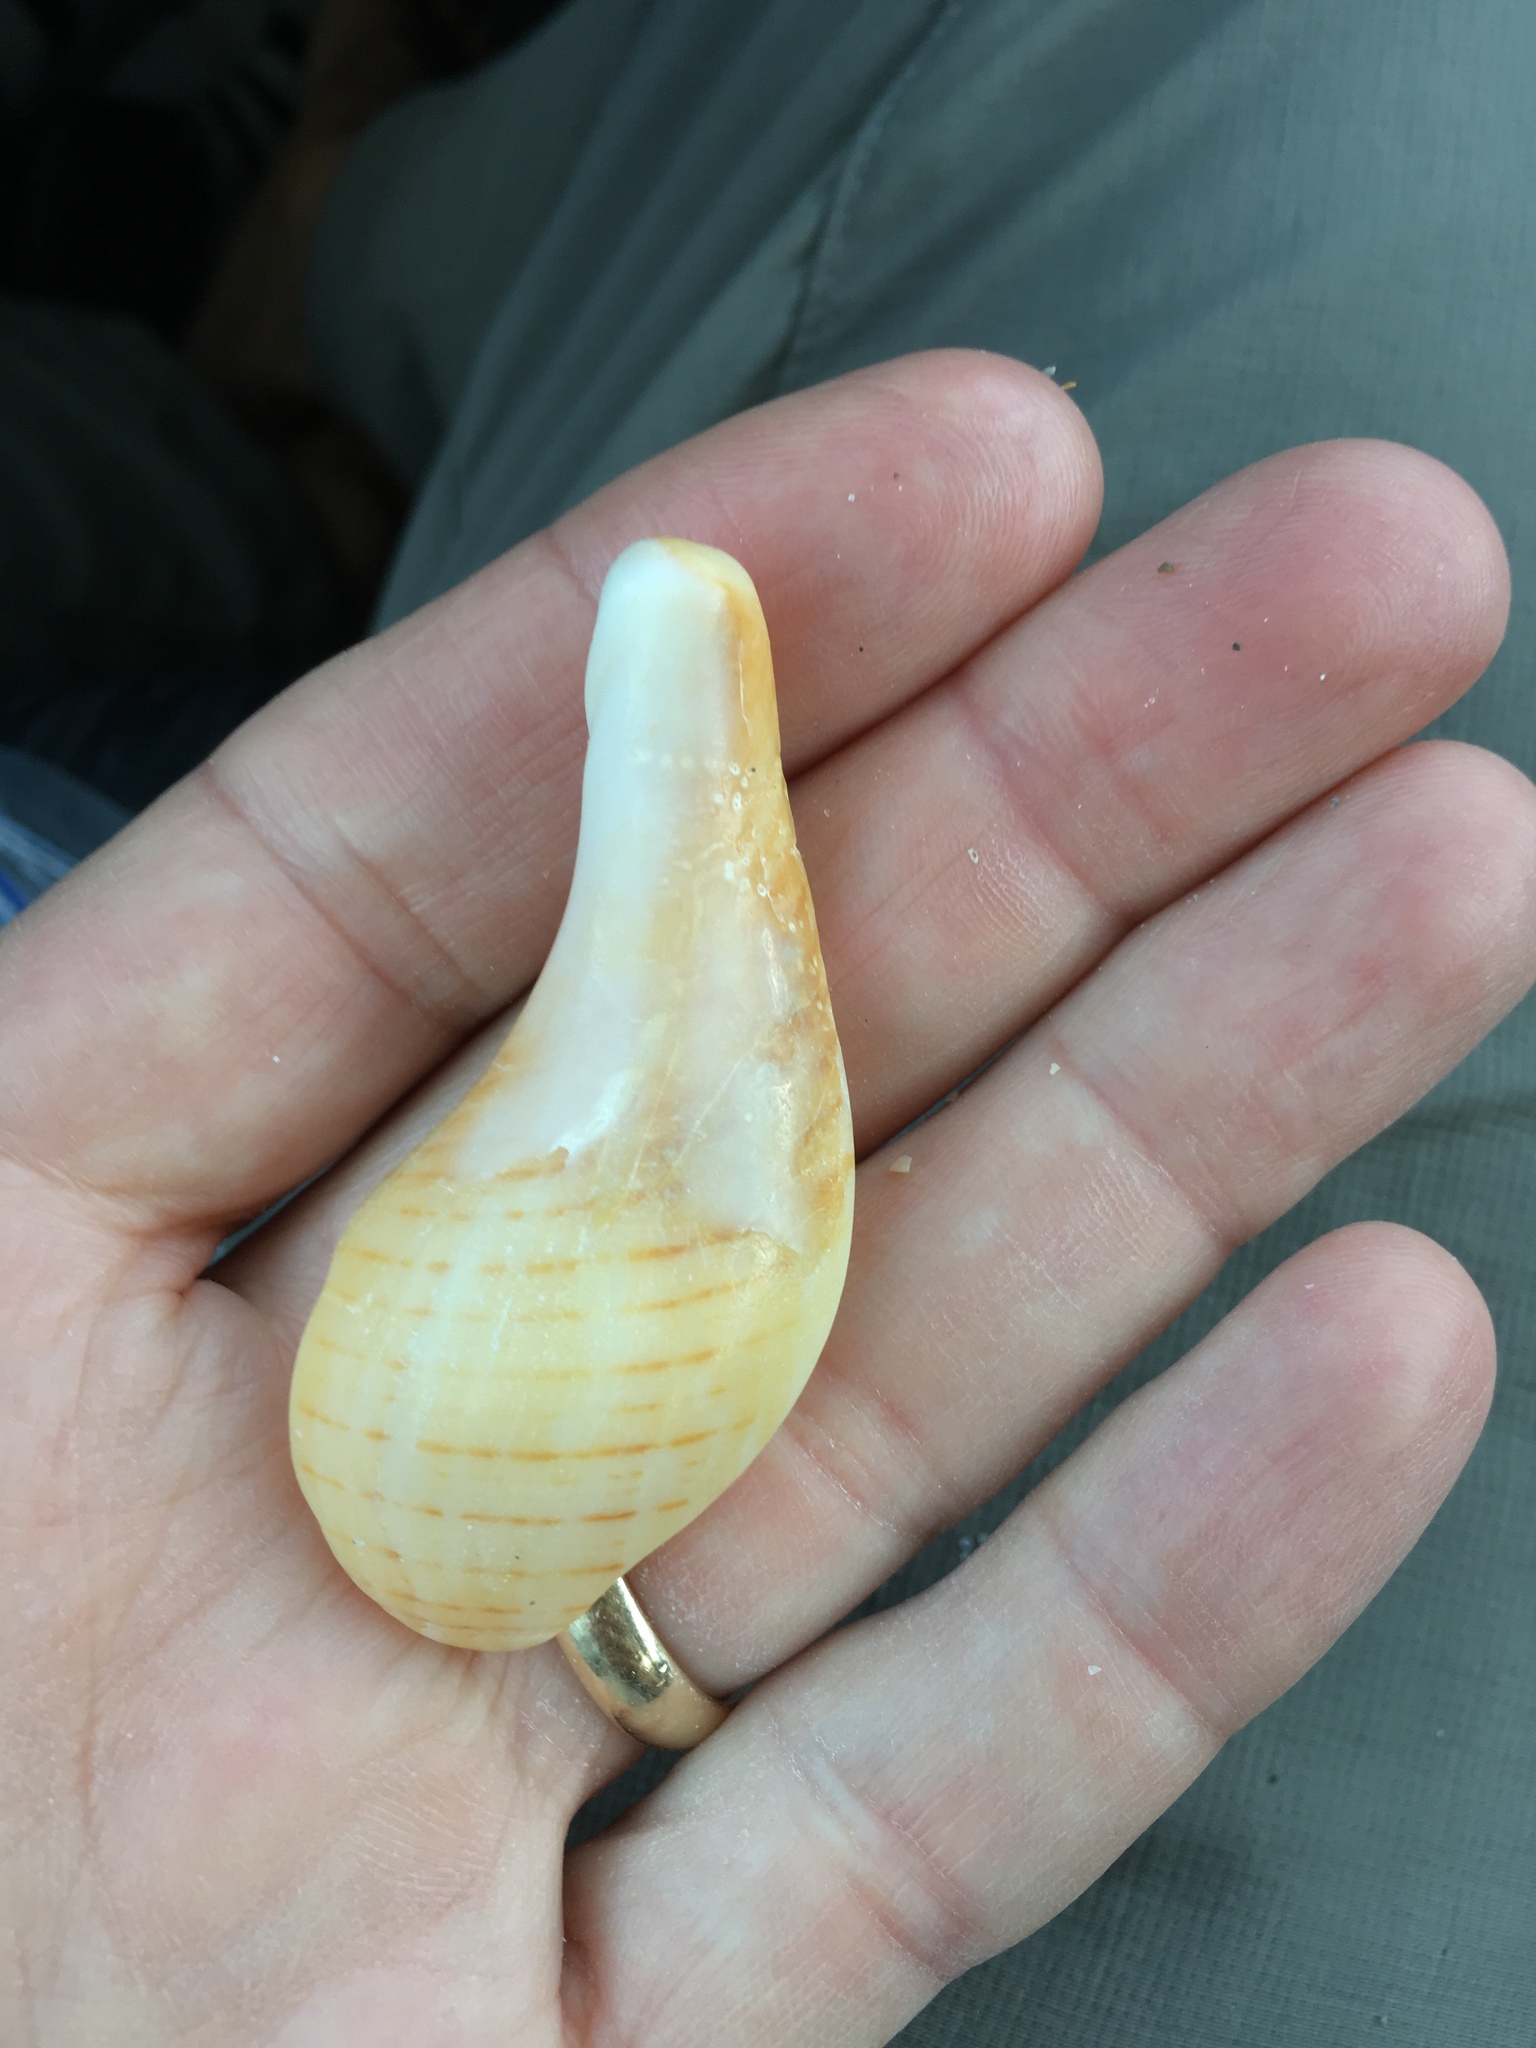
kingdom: Animalia
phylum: Mollusca
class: Gastropoda
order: Neogastropoda
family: Fasciolariidae
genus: Fasciolaria
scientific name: Fasciolaria tulipa
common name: True tulip
